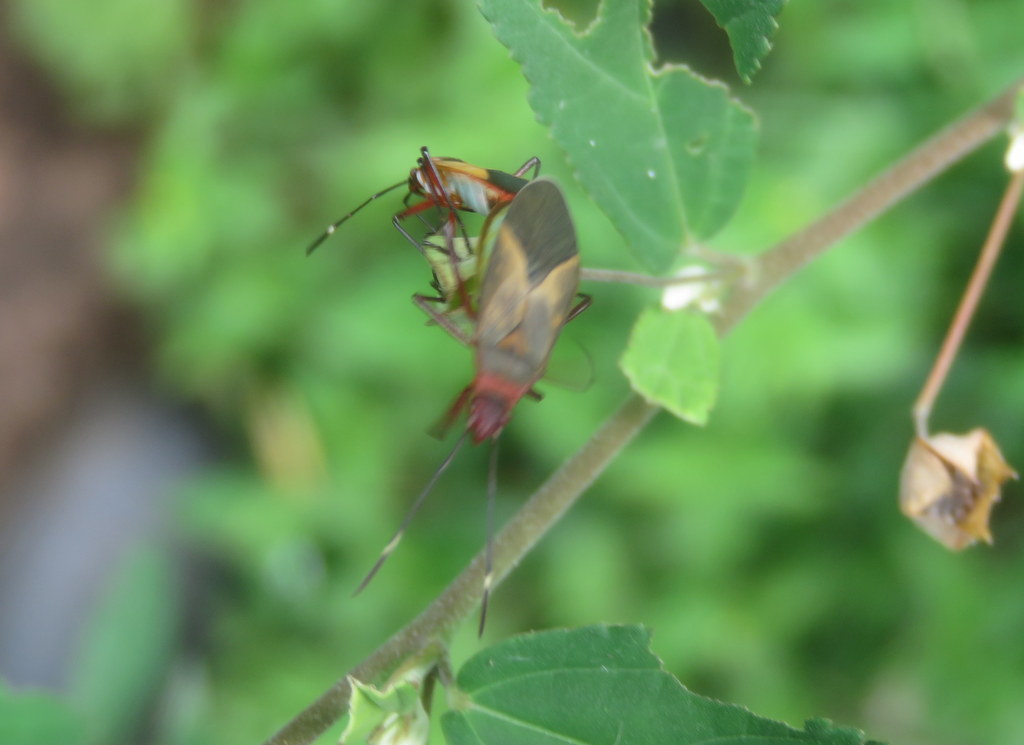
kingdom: Animalia
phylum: Arthropoda
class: Insecta
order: Hemiptera
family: Pyrrhocoridae
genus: Dysdercus
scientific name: Dysdercus
